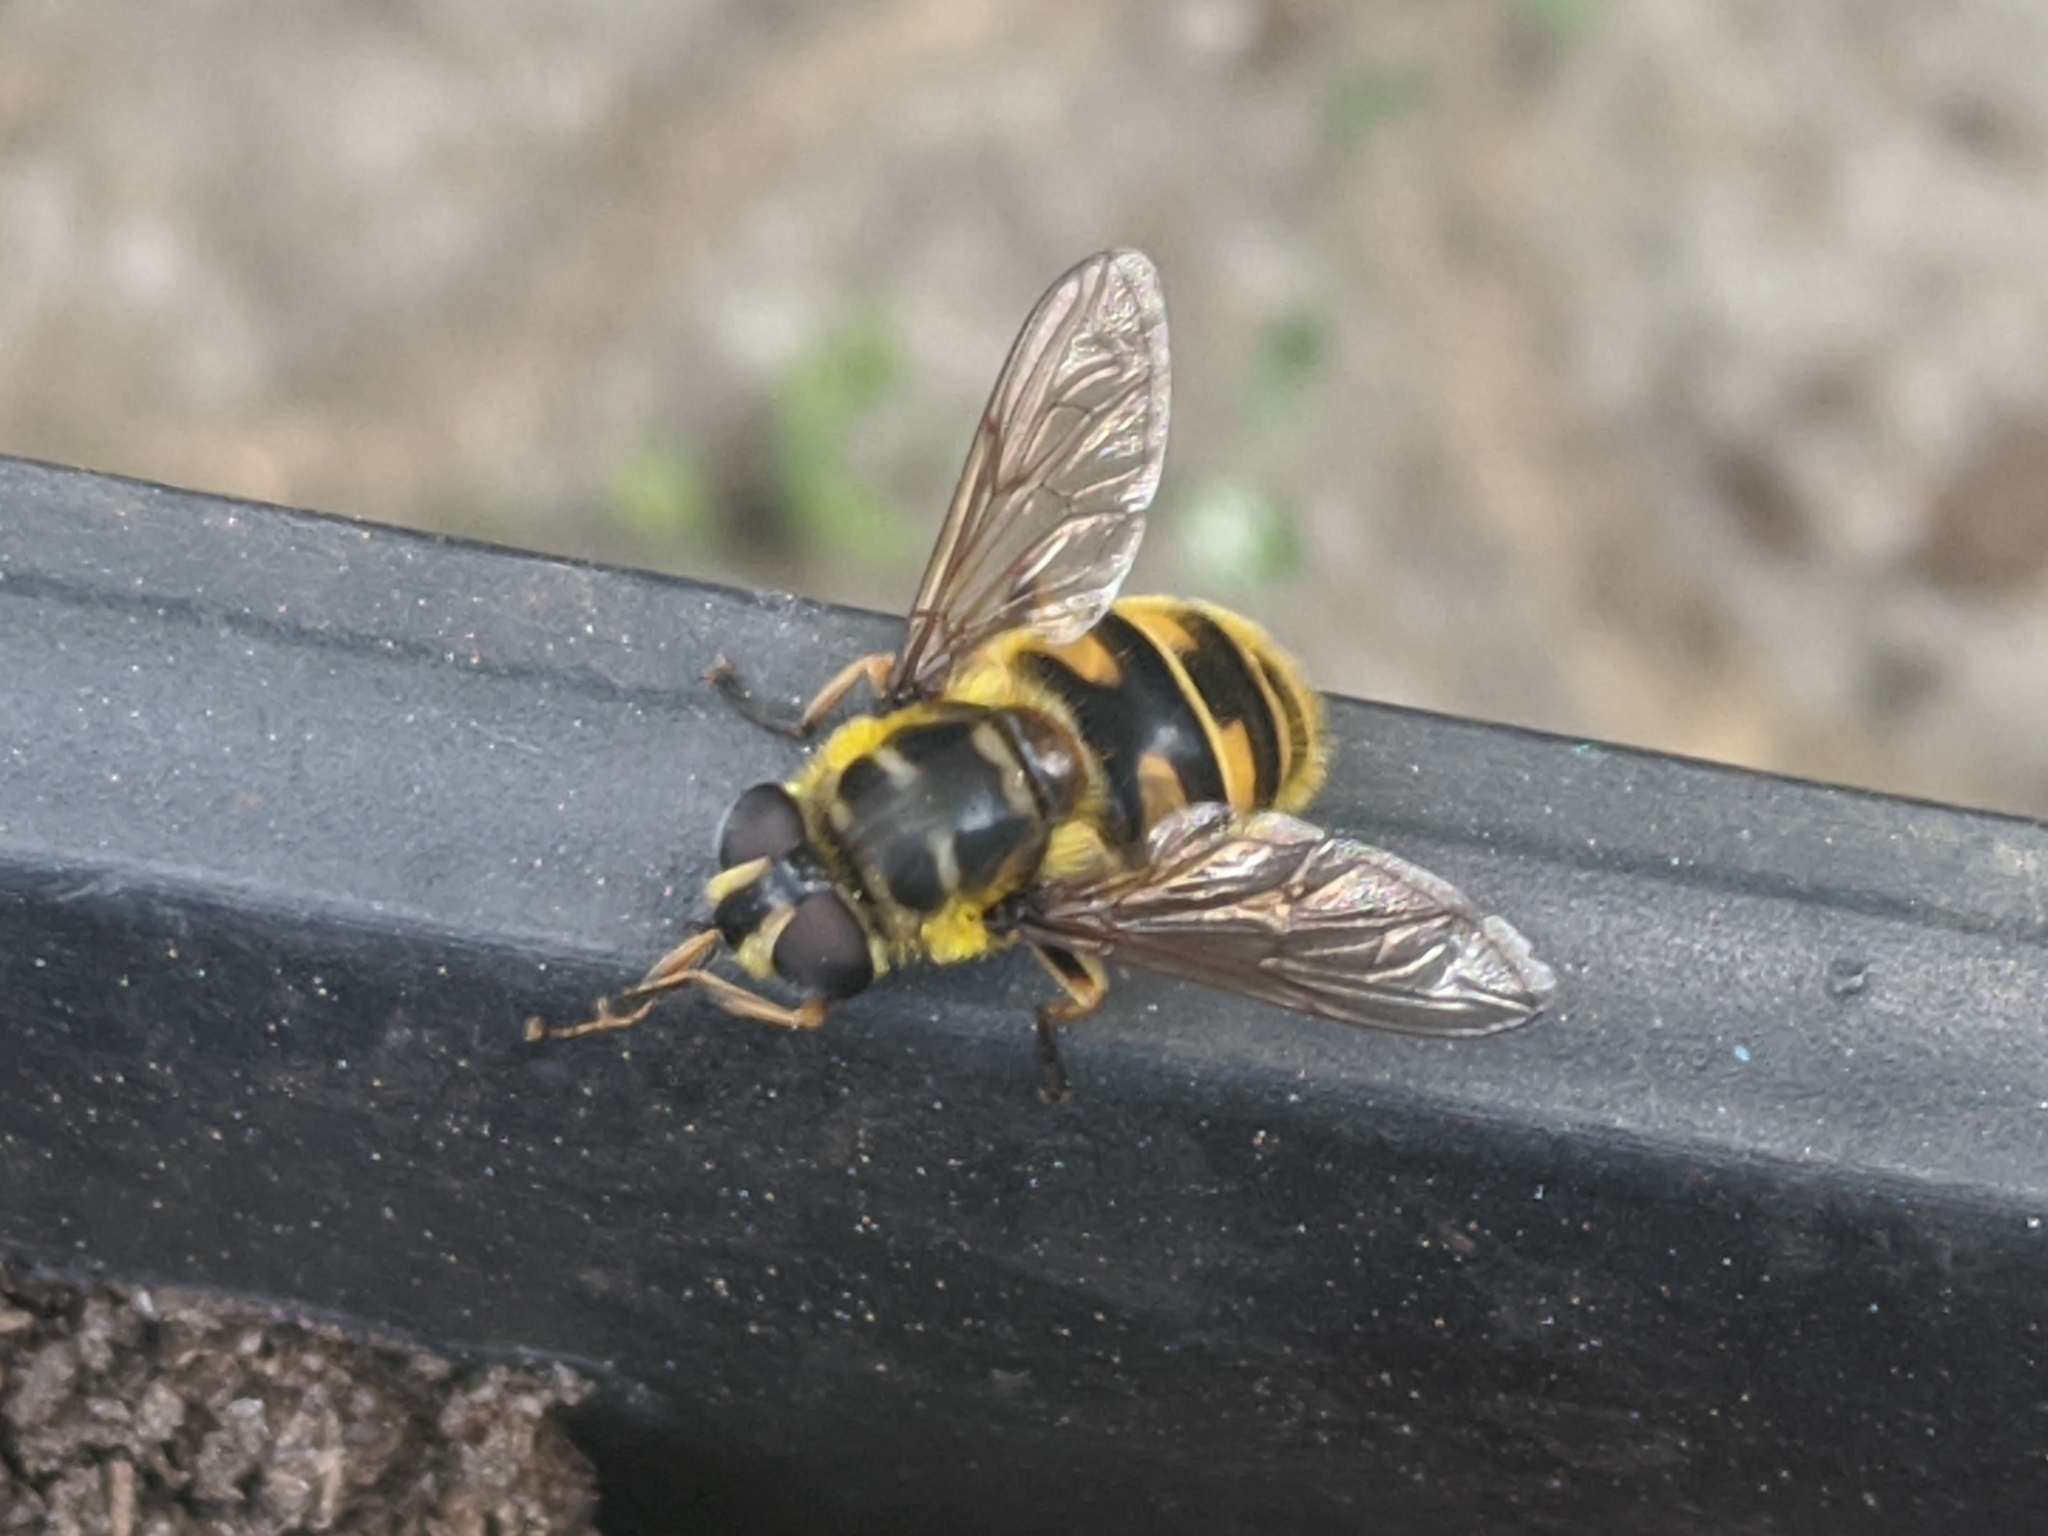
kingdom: Animalia
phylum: Arthropoda
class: Insecta
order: Diptera
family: Syrphidae
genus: Myathropa
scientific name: Myathropa florea
